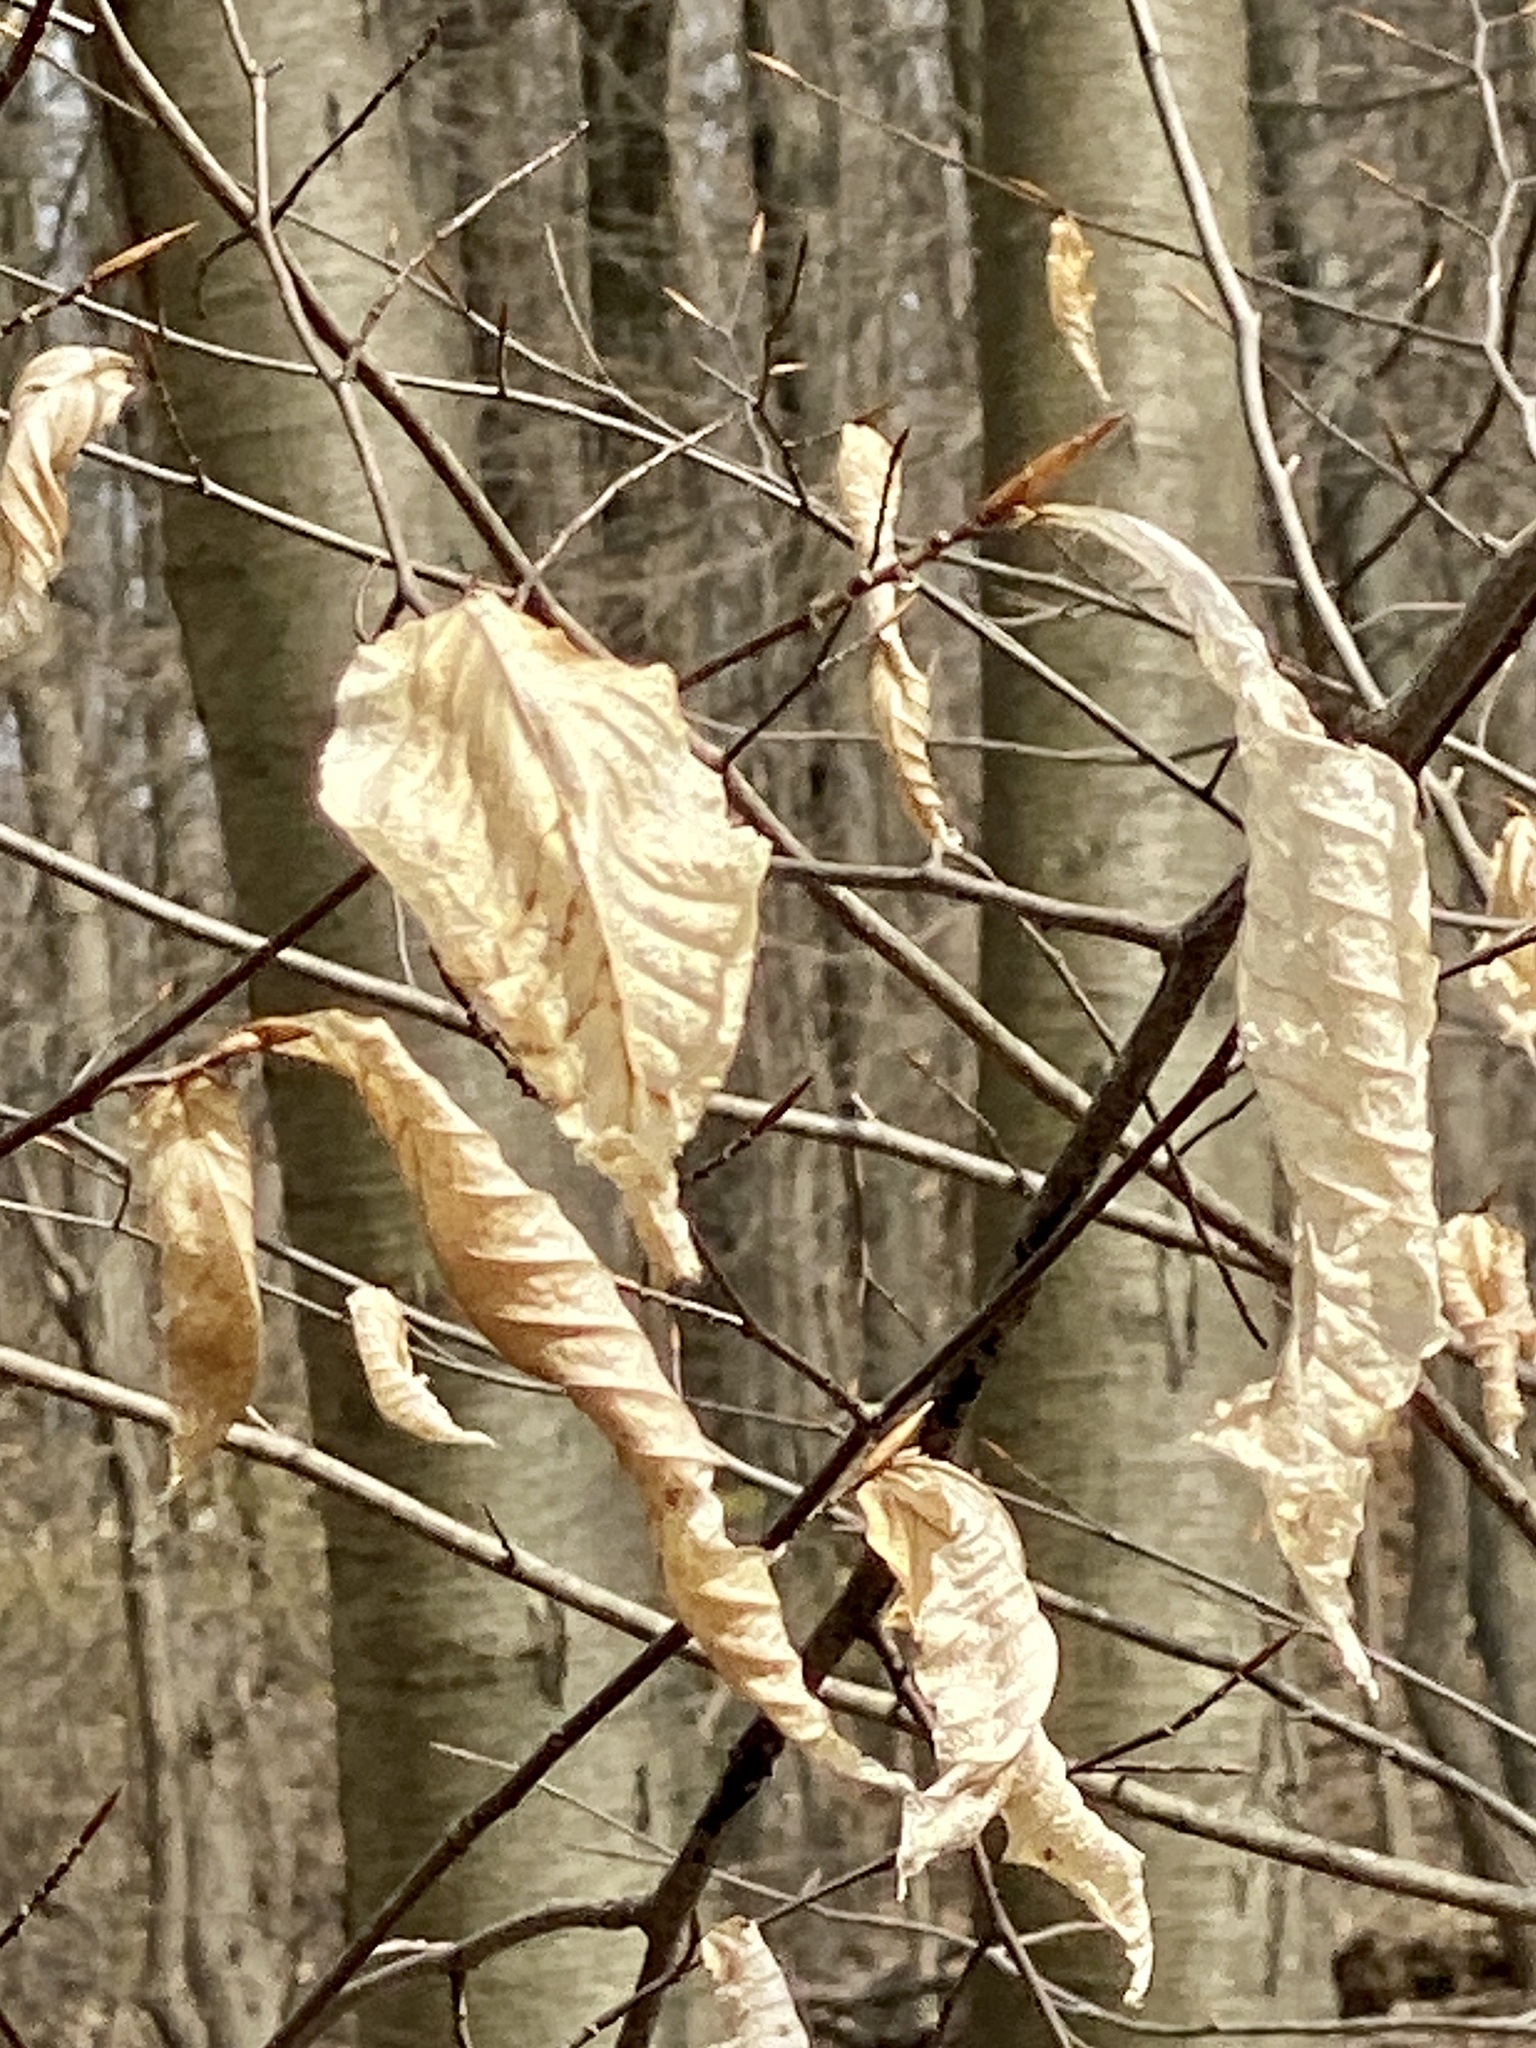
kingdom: Plantae
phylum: Tracheophyta
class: Magnoliopsida
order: Fagales
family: Fagaceae
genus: Fagus
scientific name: Fagus grandifolia
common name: American beech
